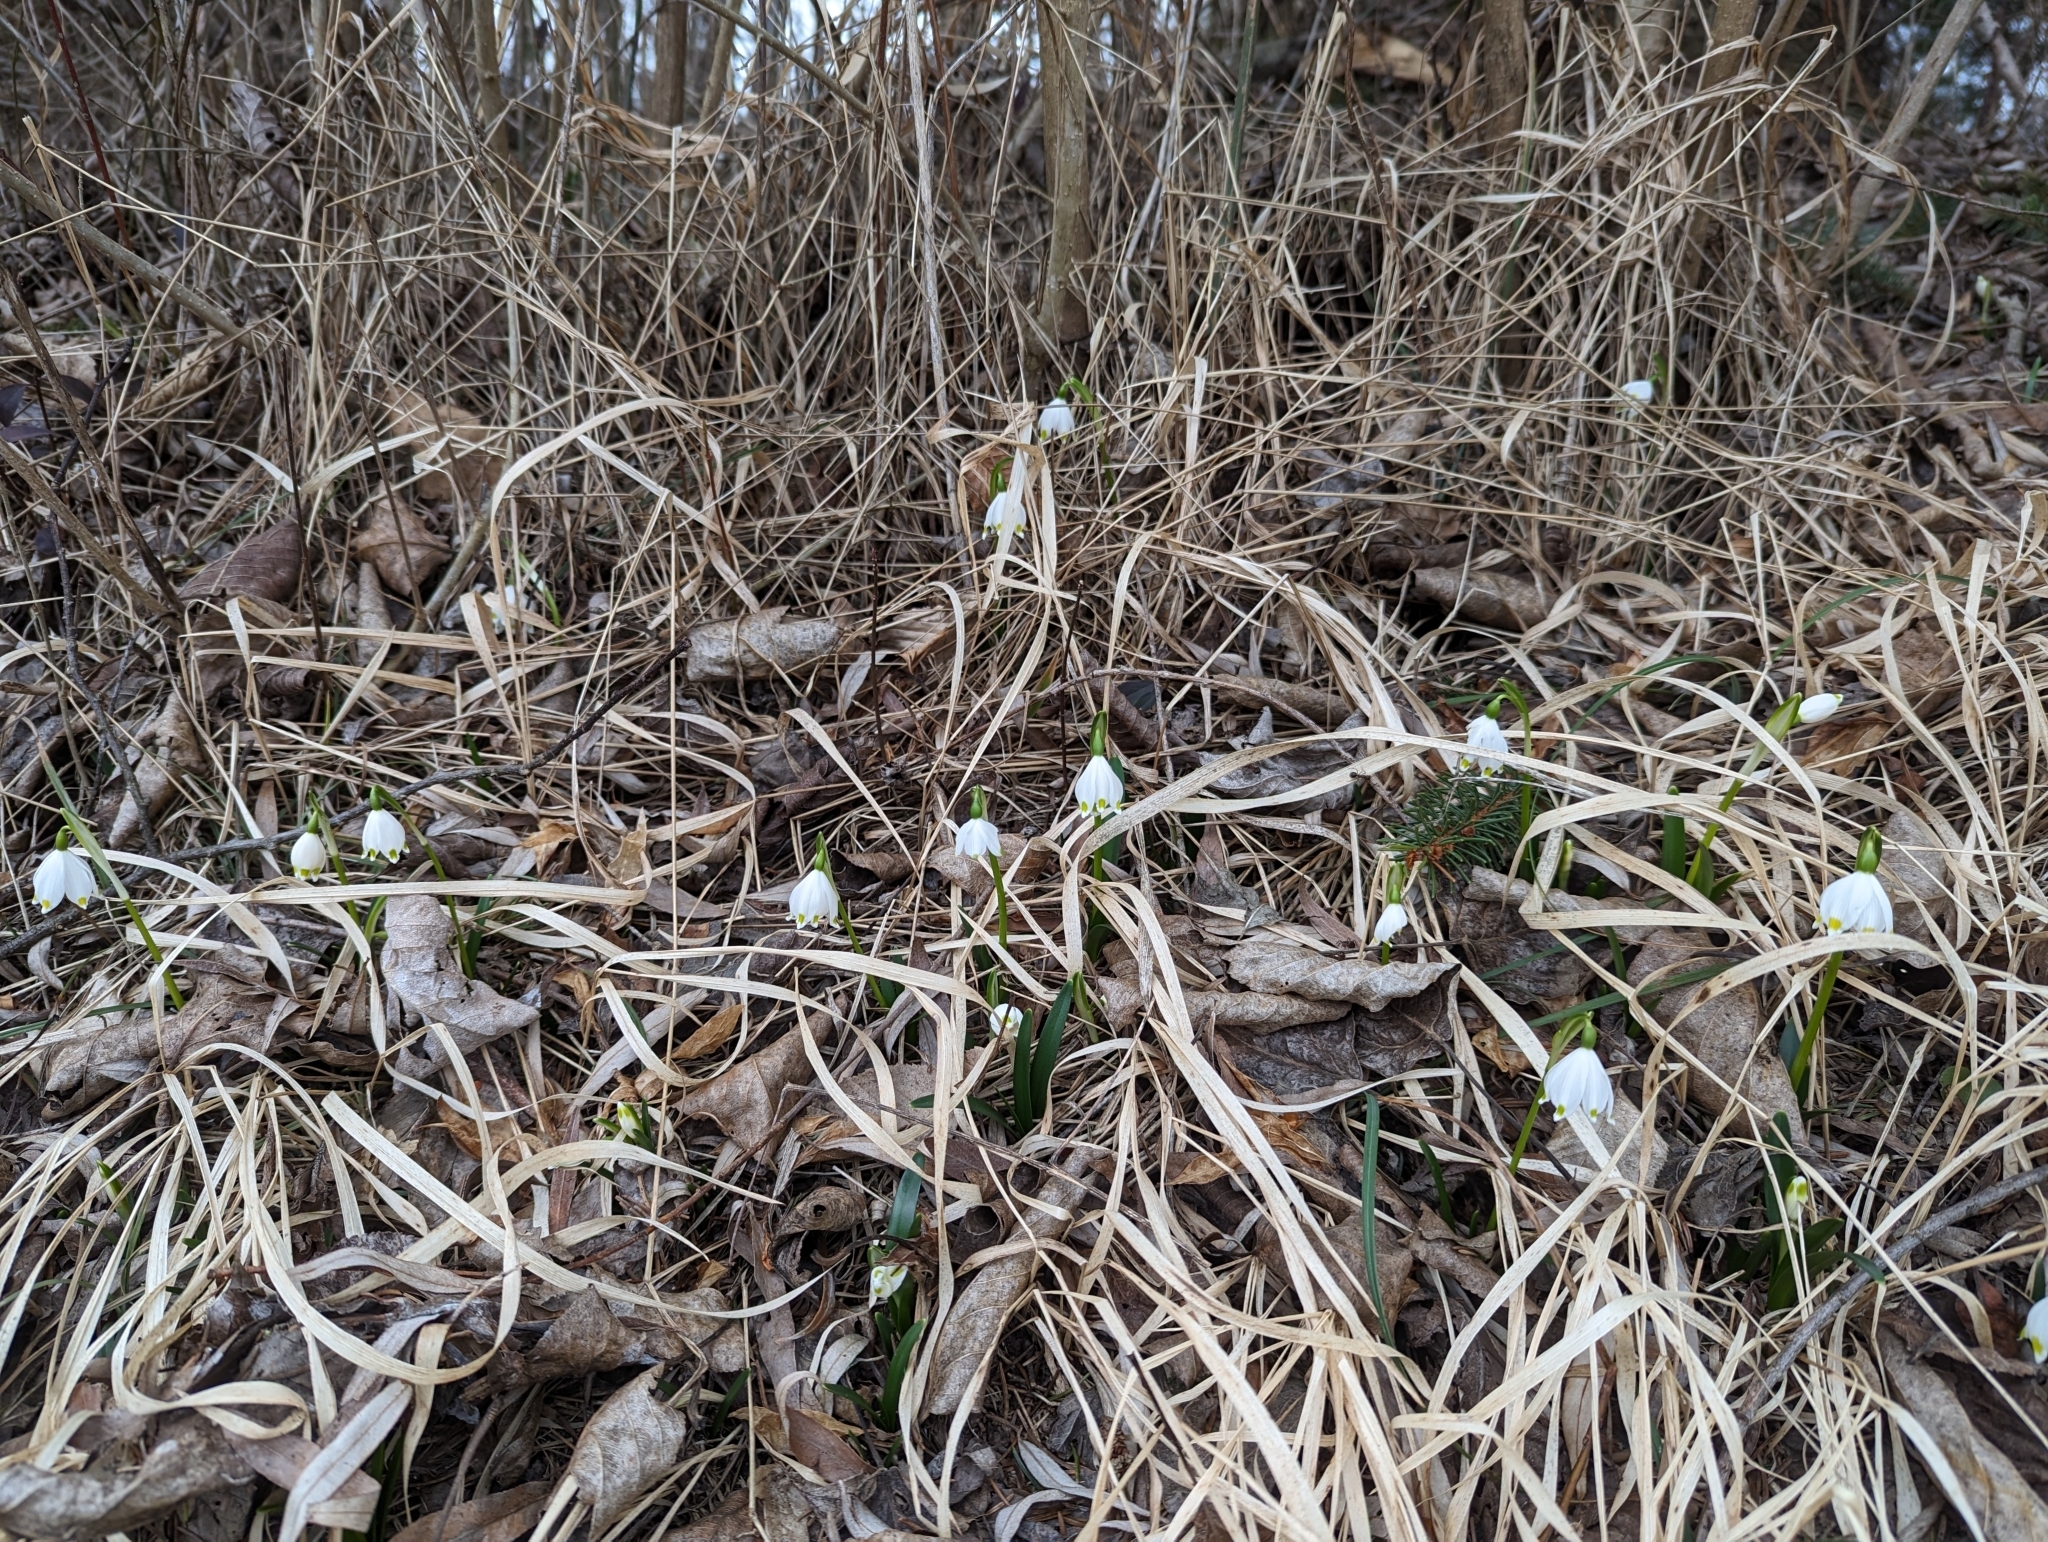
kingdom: Plantae
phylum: Tracheophyta
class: Liliopsida
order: Asparagales
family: Amaryllidaceae
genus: Leucojum
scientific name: Leucojum vernum
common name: Spring snowflake
